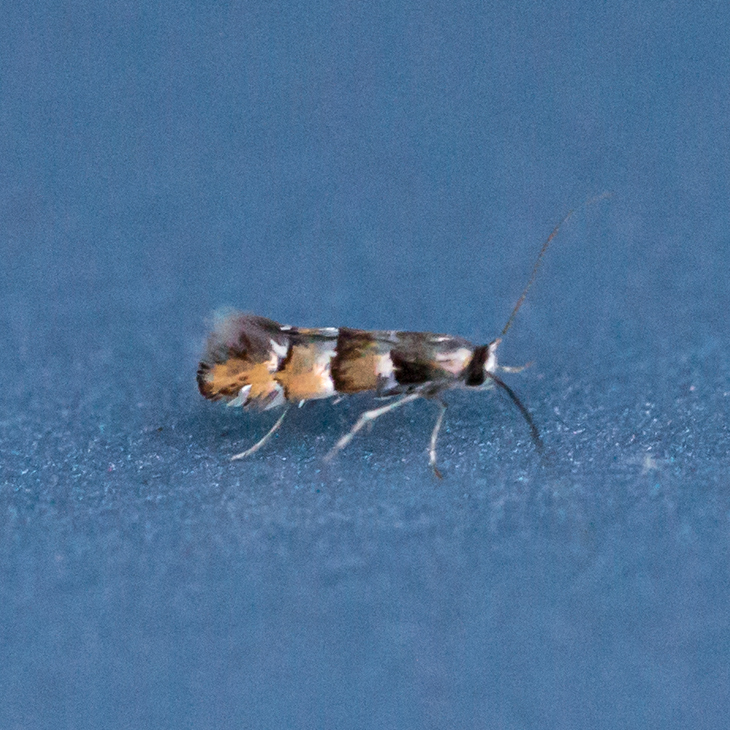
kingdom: Animalia
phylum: Arthropoda
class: Insecta
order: Lepidoptera
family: Gracillariidae
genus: Chrysaster
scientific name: Chrysaster ostensackenella
